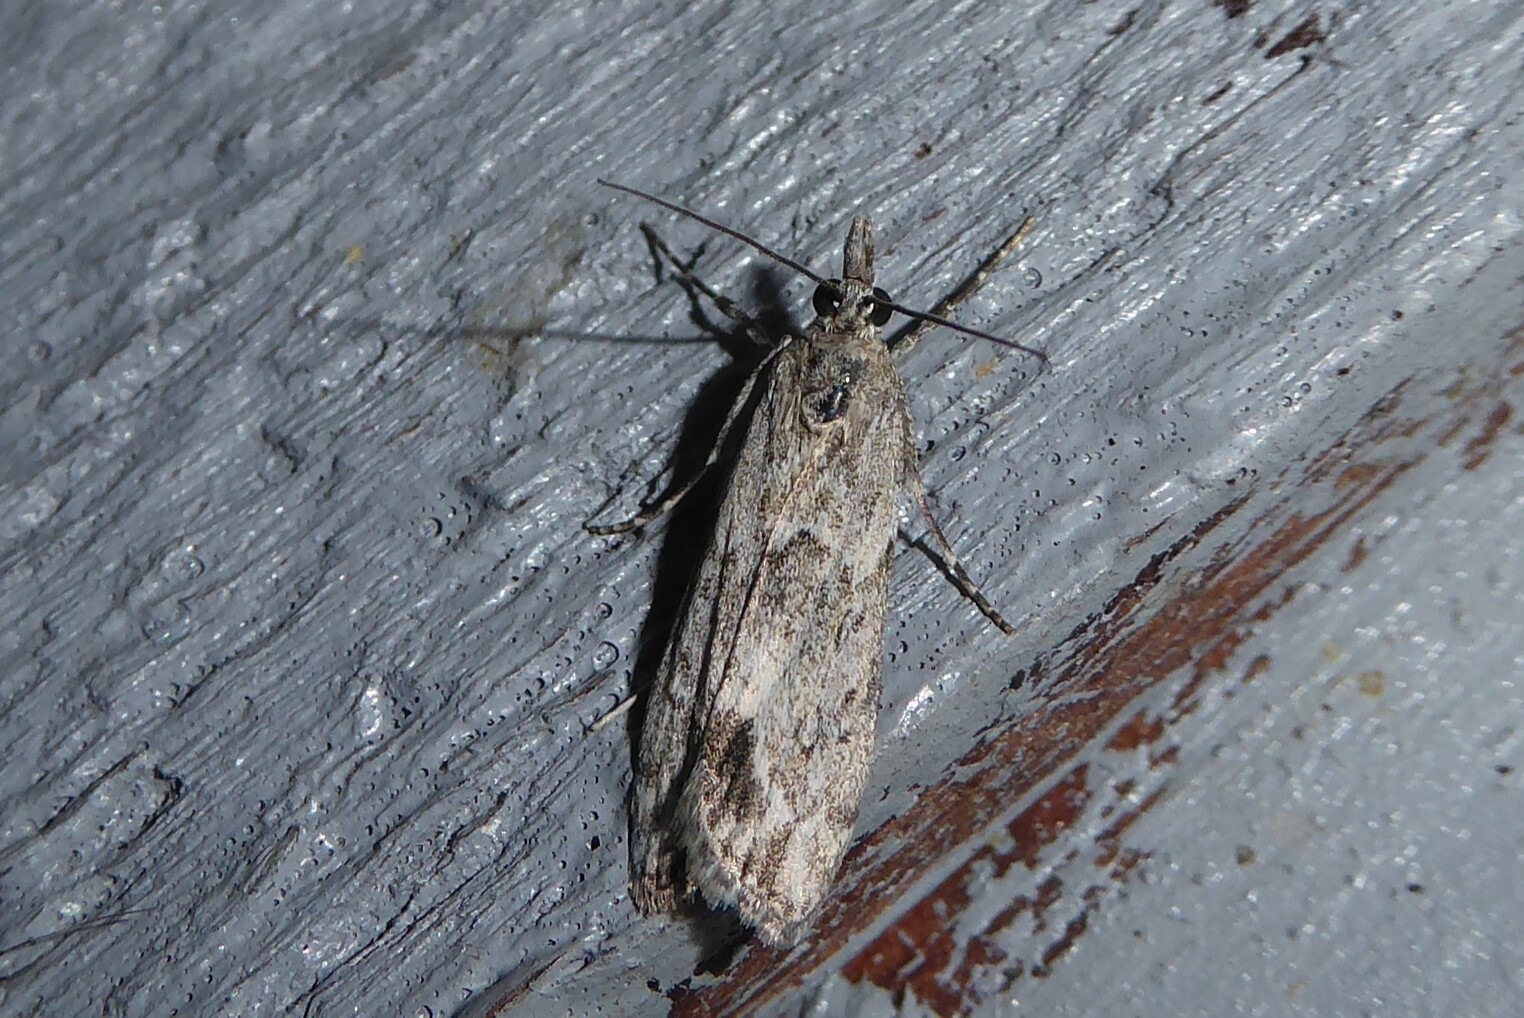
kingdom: Animalia
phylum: Arthropoda
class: Insecta
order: Lepidoptera
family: Crambidae
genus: Eudonia
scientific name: Eudonia rakaiensis
